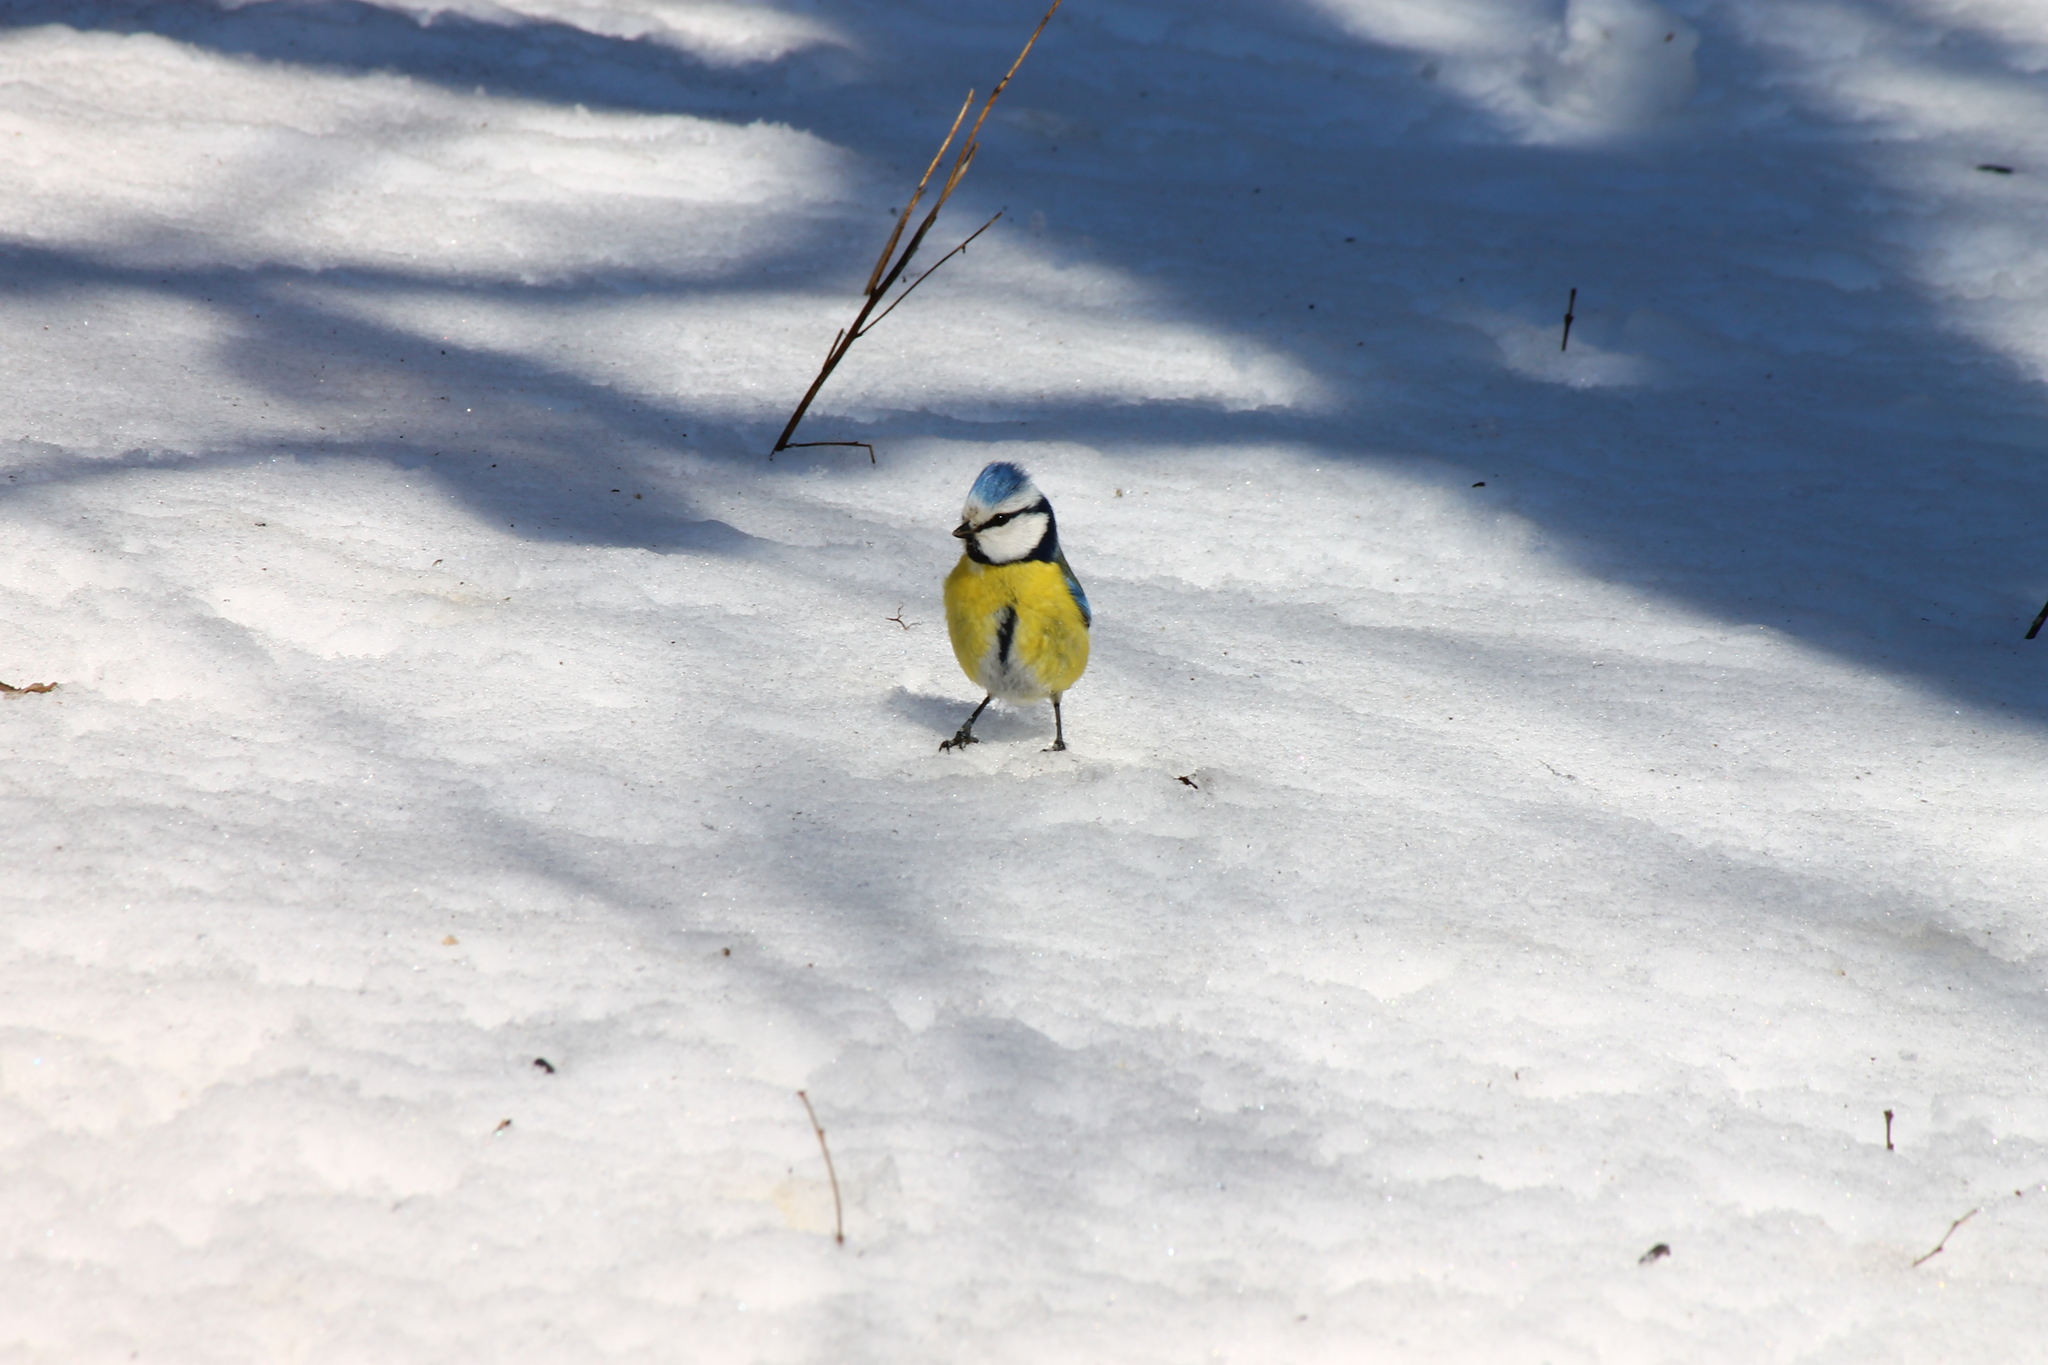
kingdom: Animalia
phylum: Chordata
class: Aves
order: Passeriformes
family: Paridae
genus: Cyanistes
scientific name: Cyanistes caeruleus
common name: Eurasian blue tit
